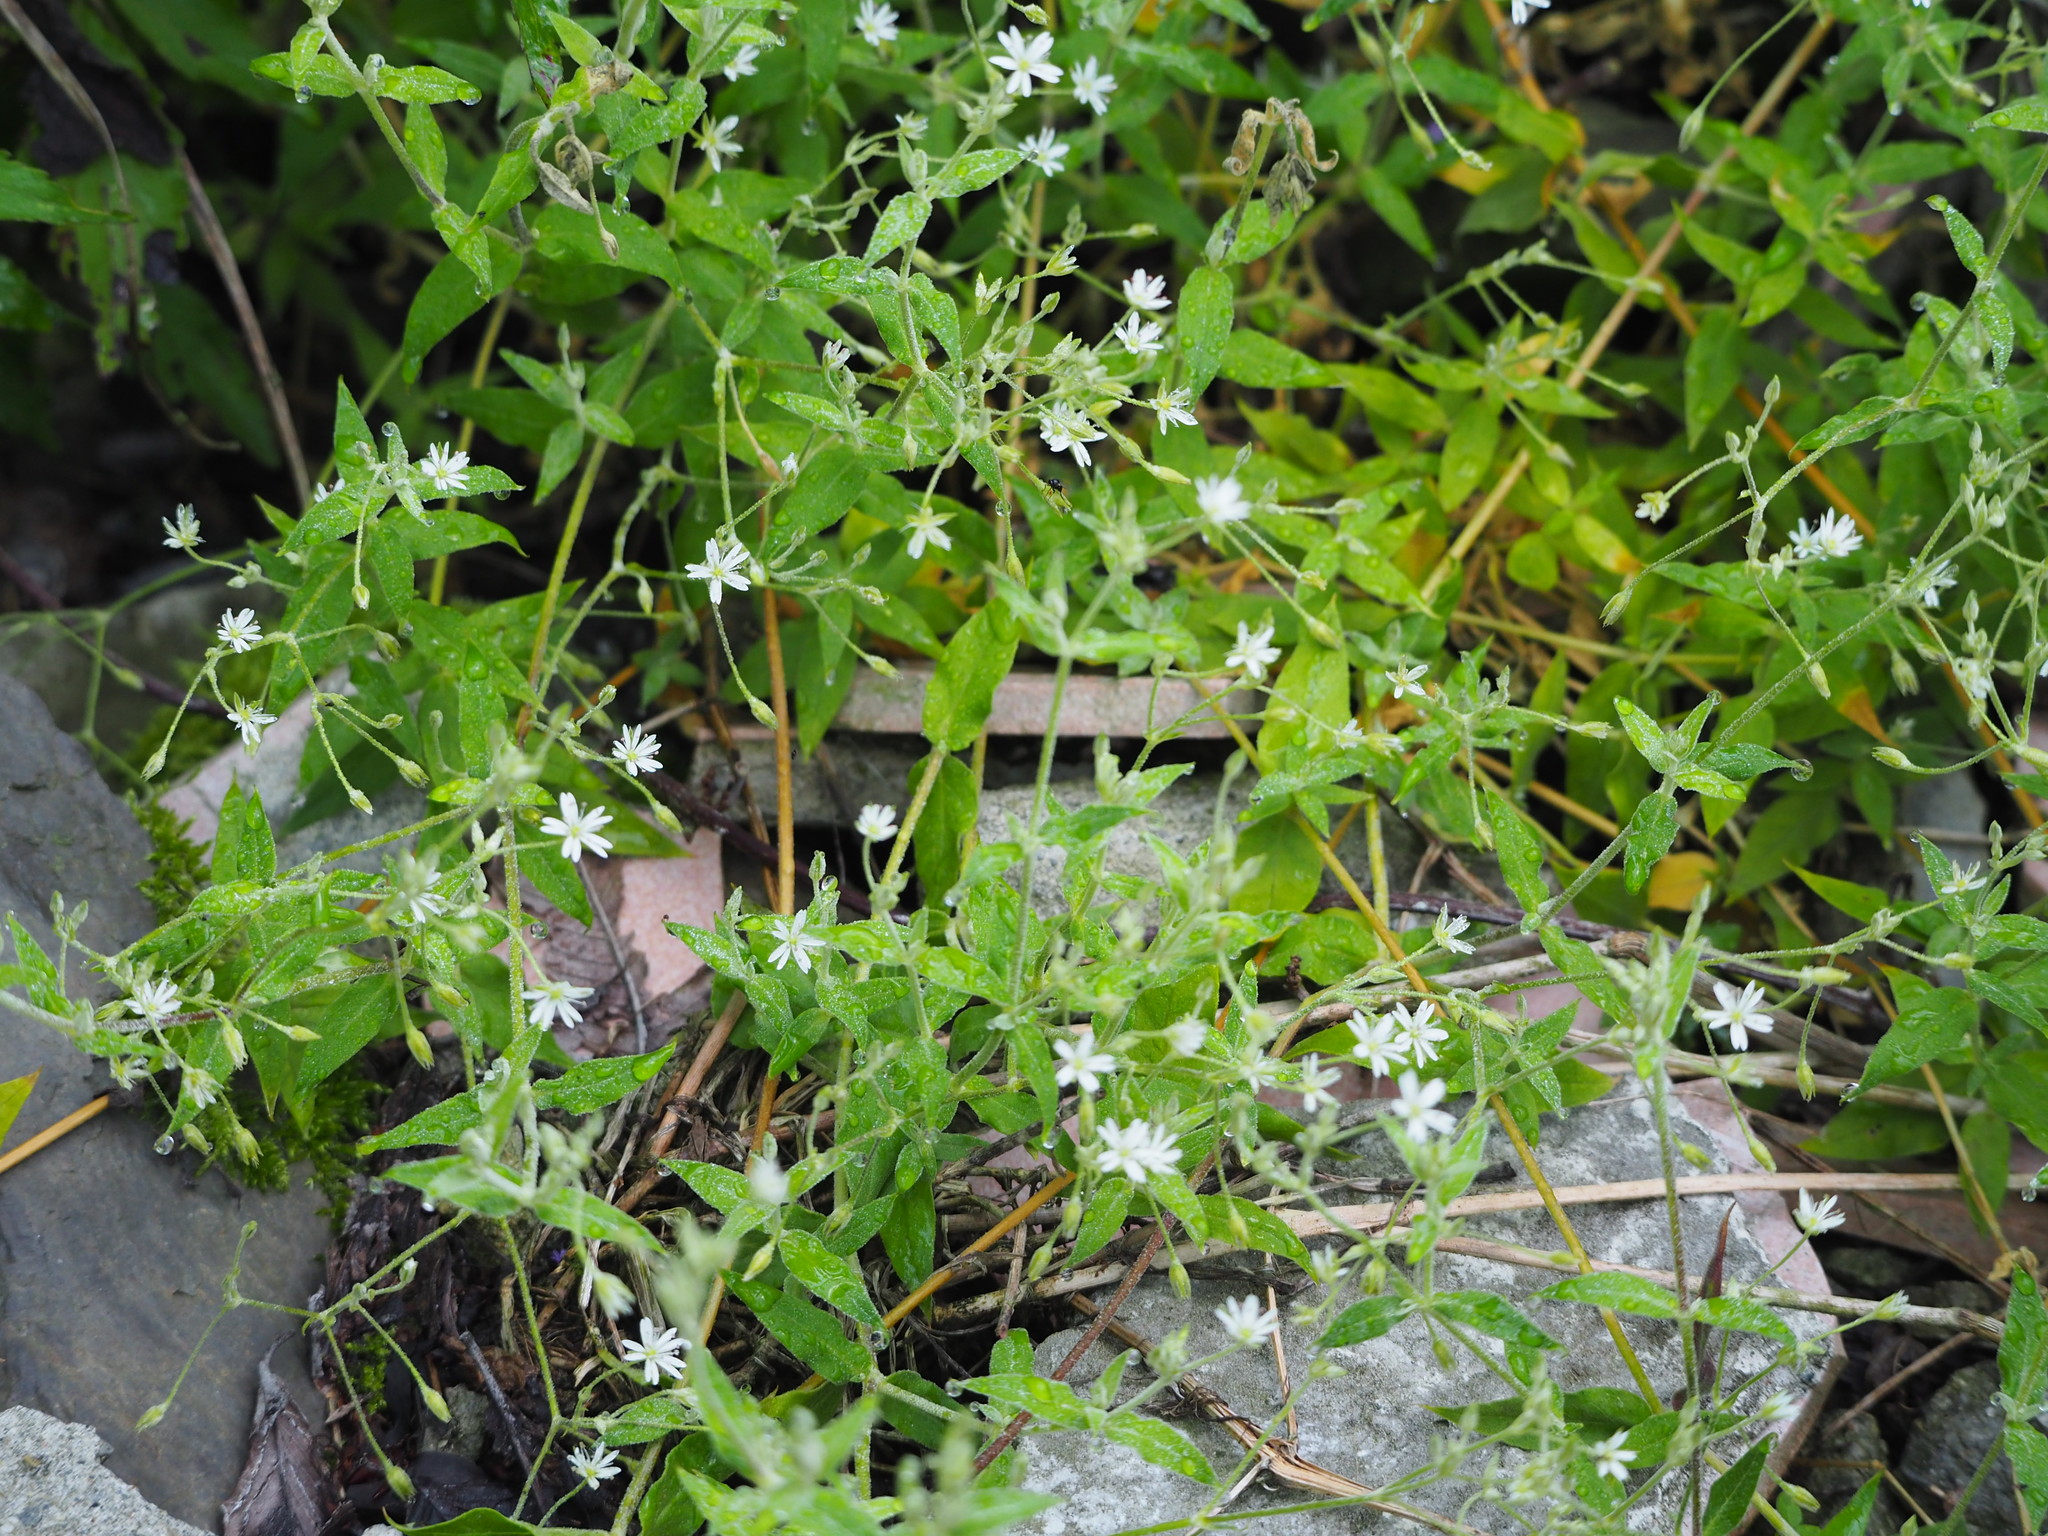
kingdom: Plantae
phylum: Tracheophyta
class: Magnoliopsida
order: Caryophyllales
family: Caryophyllaceae
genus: Stellaria
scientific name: Stellaria vestita
